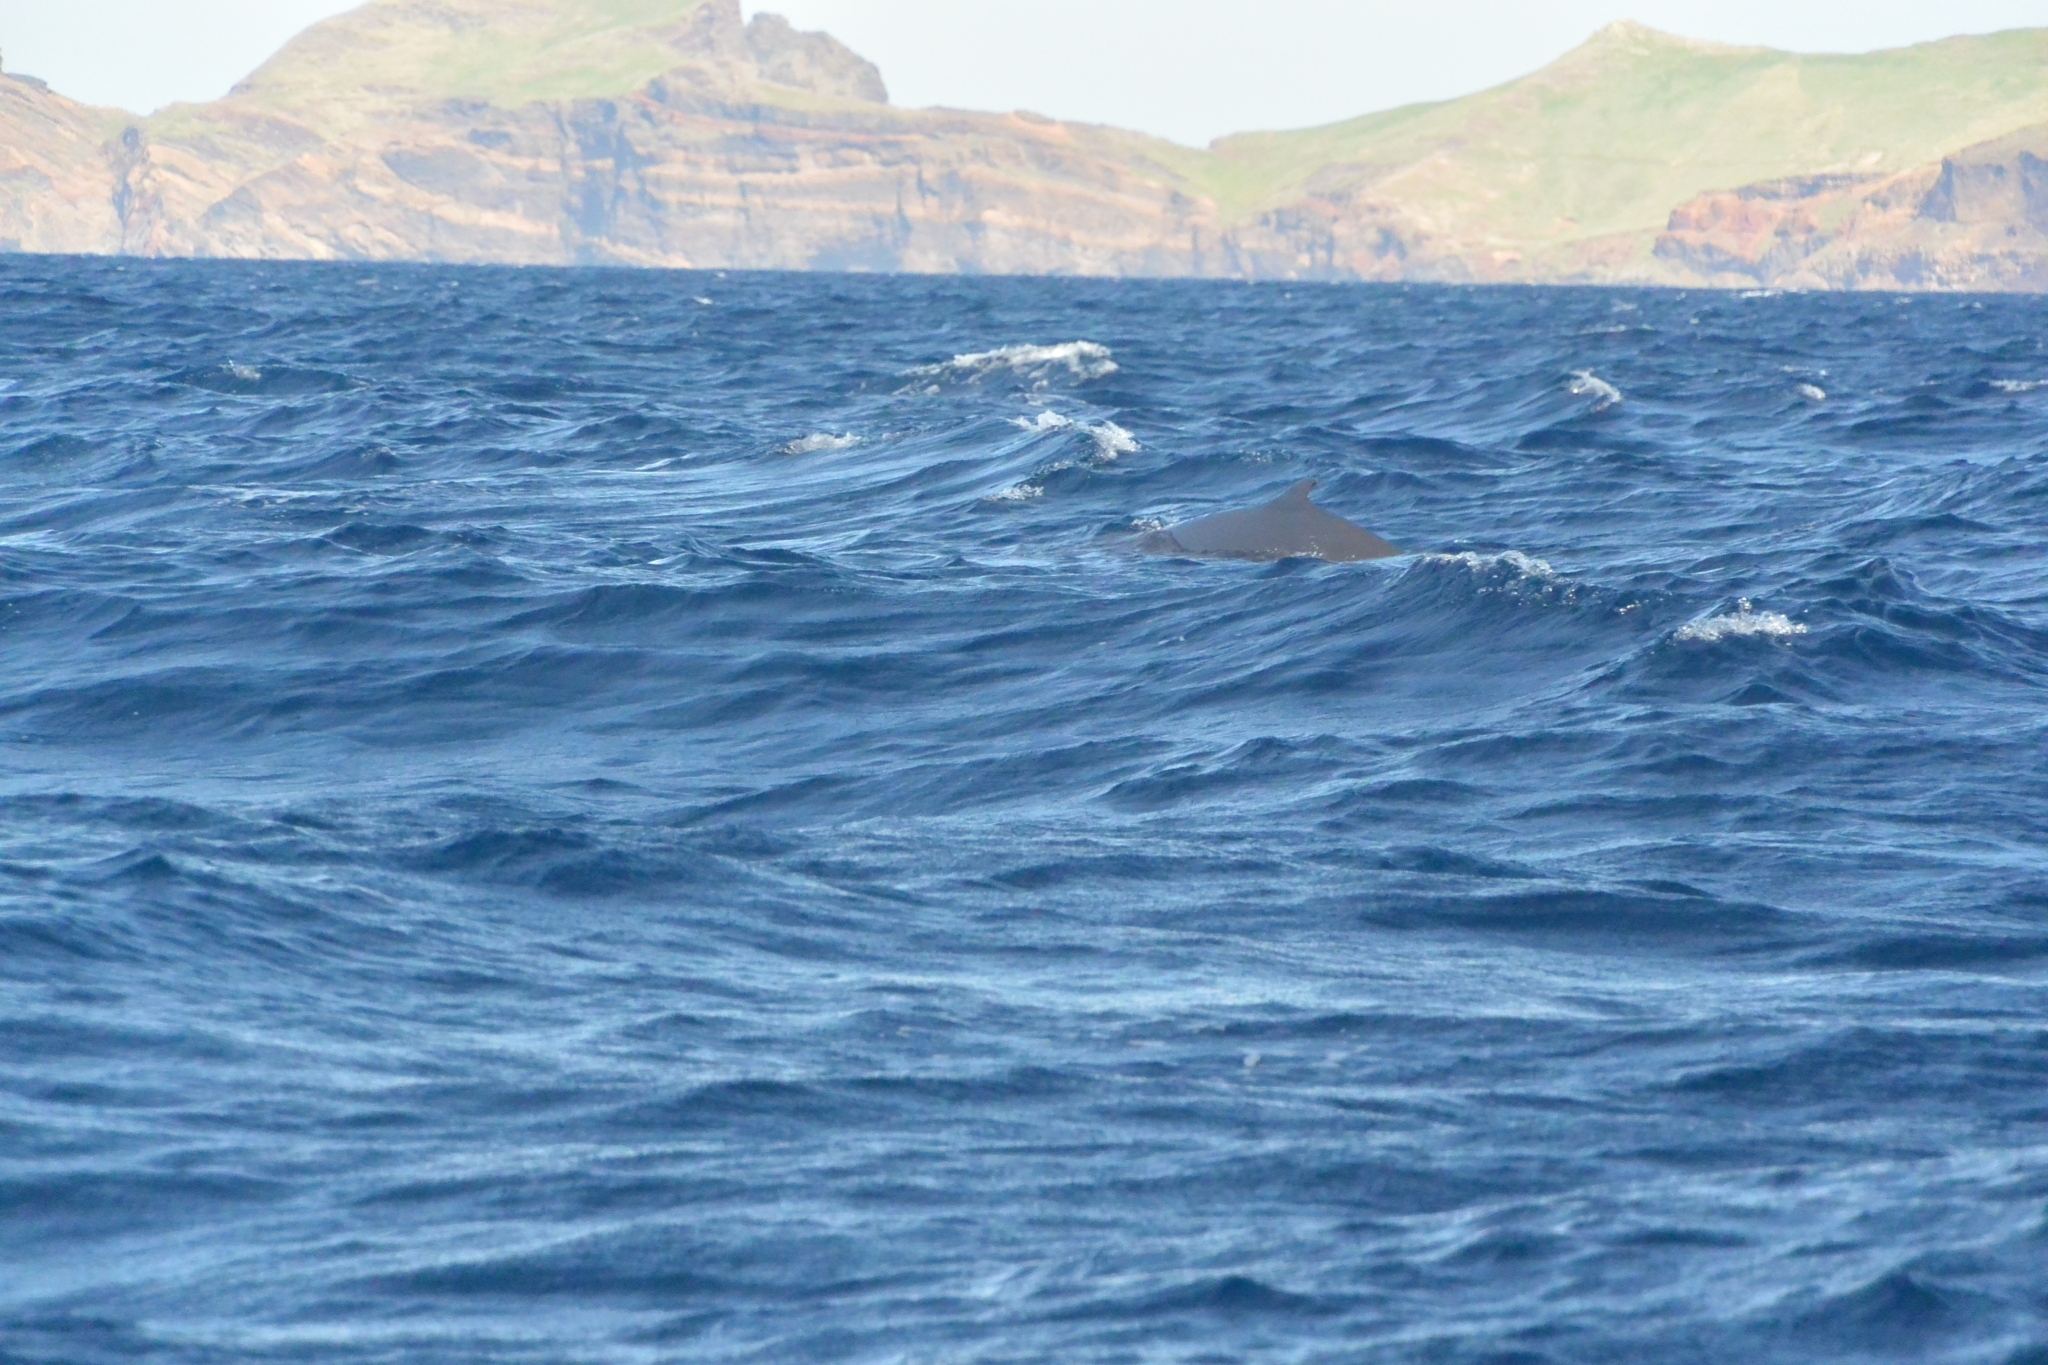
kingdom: Animalia
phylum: Chordata
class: Mammalia
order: Cetacea
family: Kogiidae
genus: Kogia
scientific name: Kogia breviceps
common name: Pygmy sperm whale
